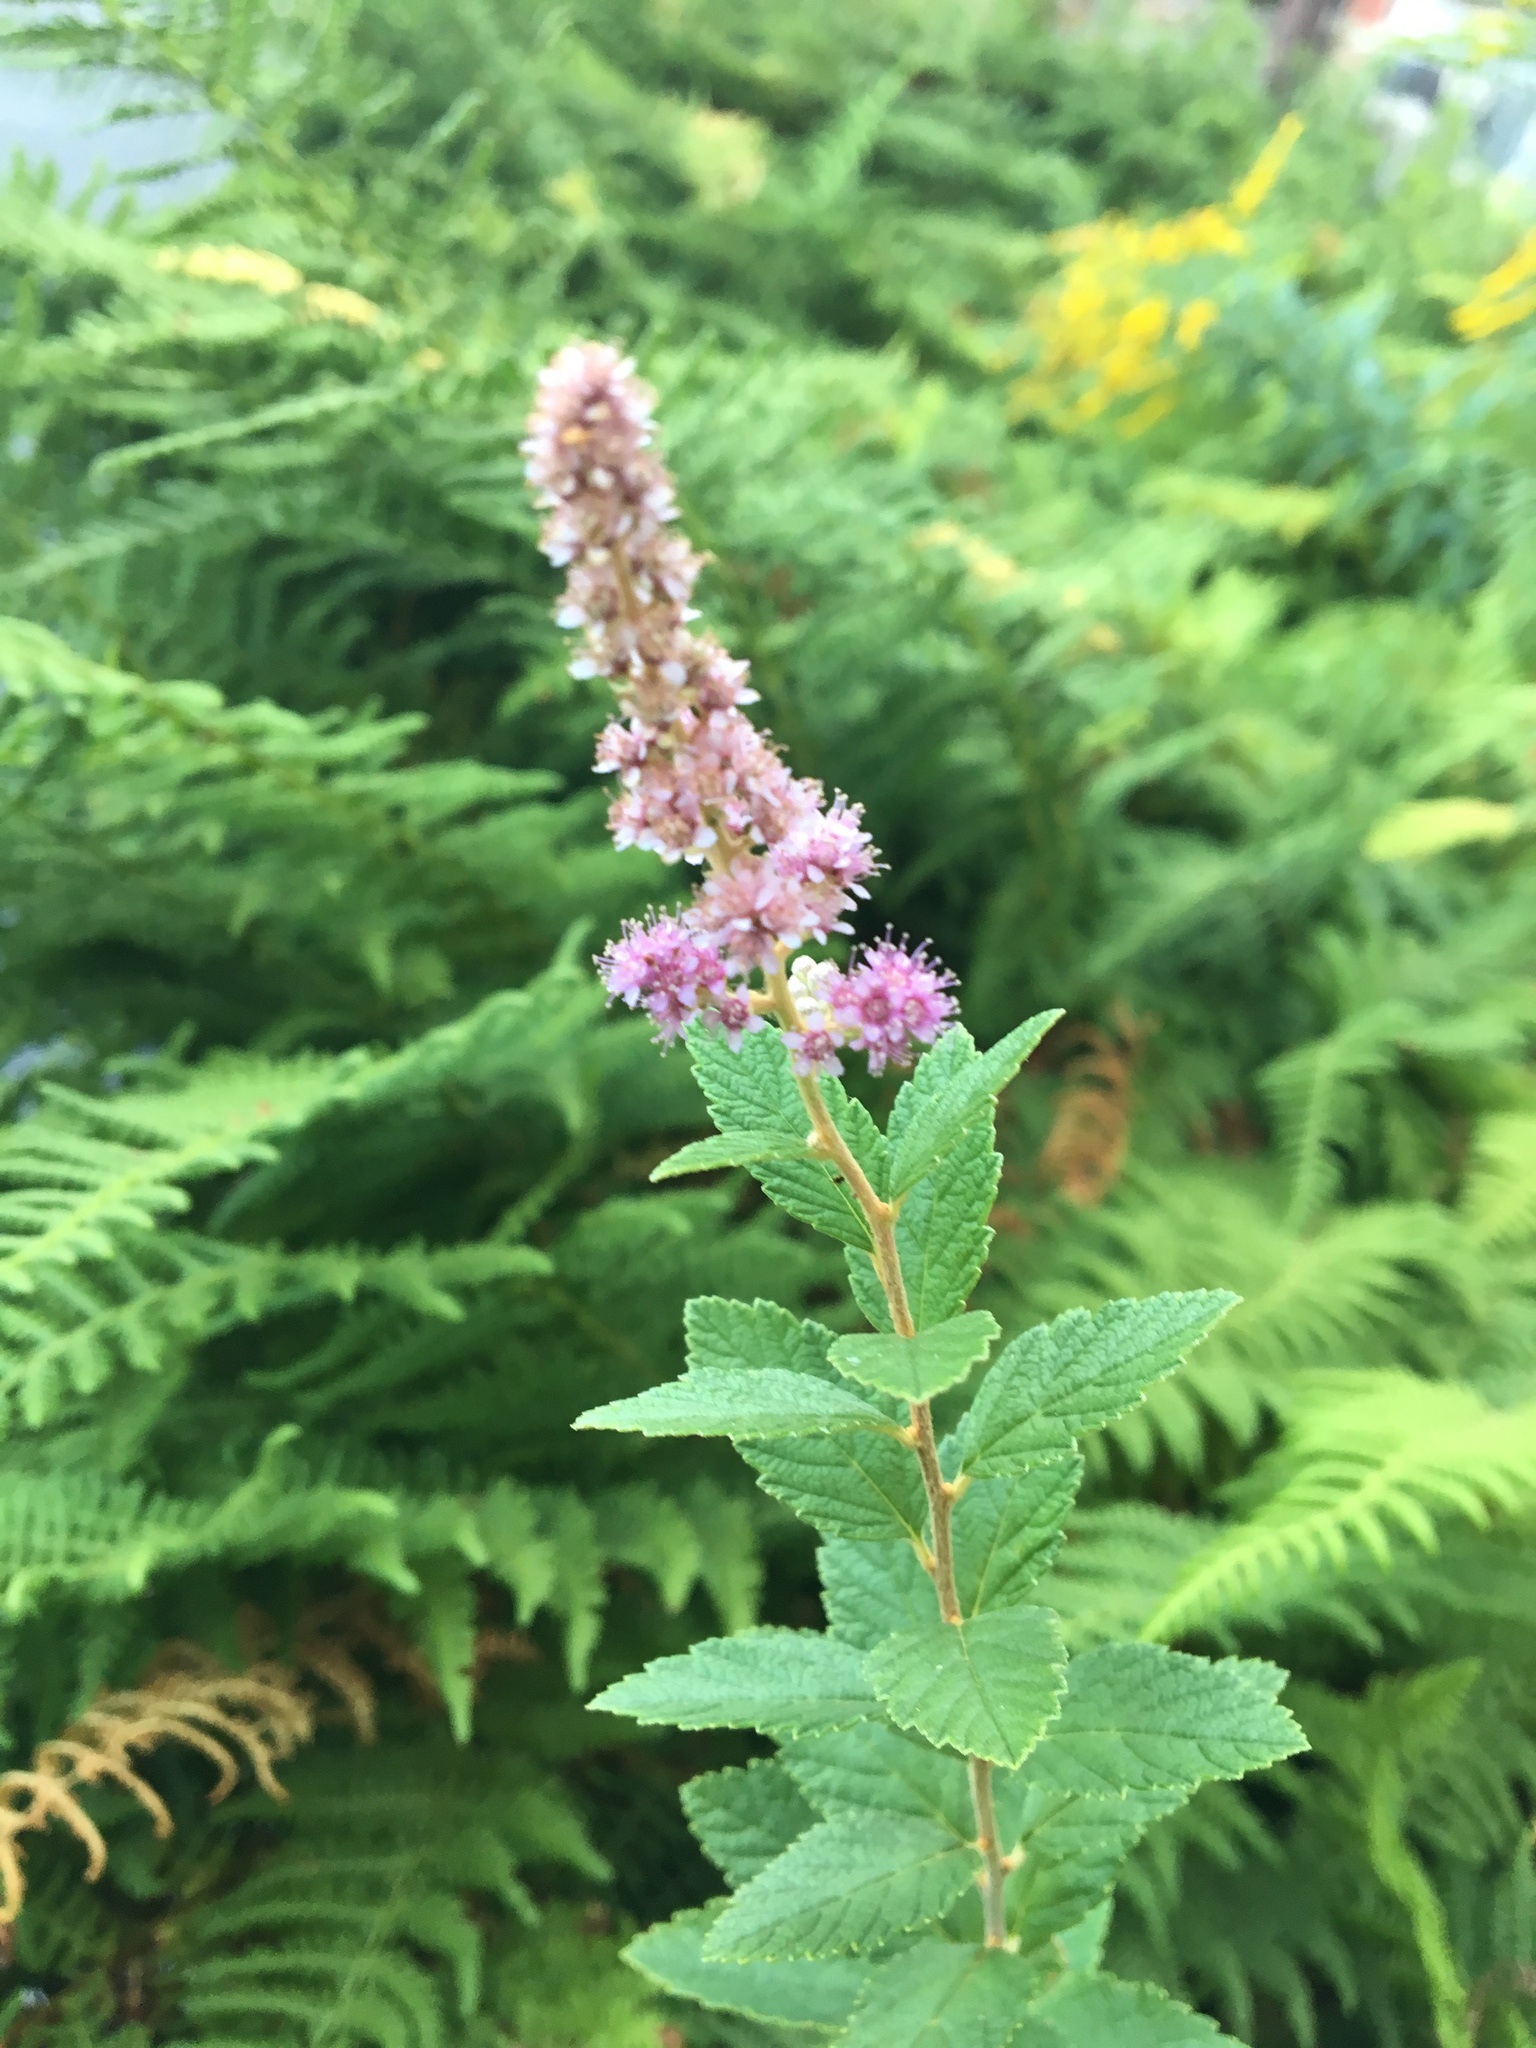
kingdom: Plantae
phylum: Tracheophyta
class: Magnoliopsida
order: Rosales
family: Rosaceae
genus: Spiraea
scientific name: Spiraea tomentosa
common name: Hardhack
